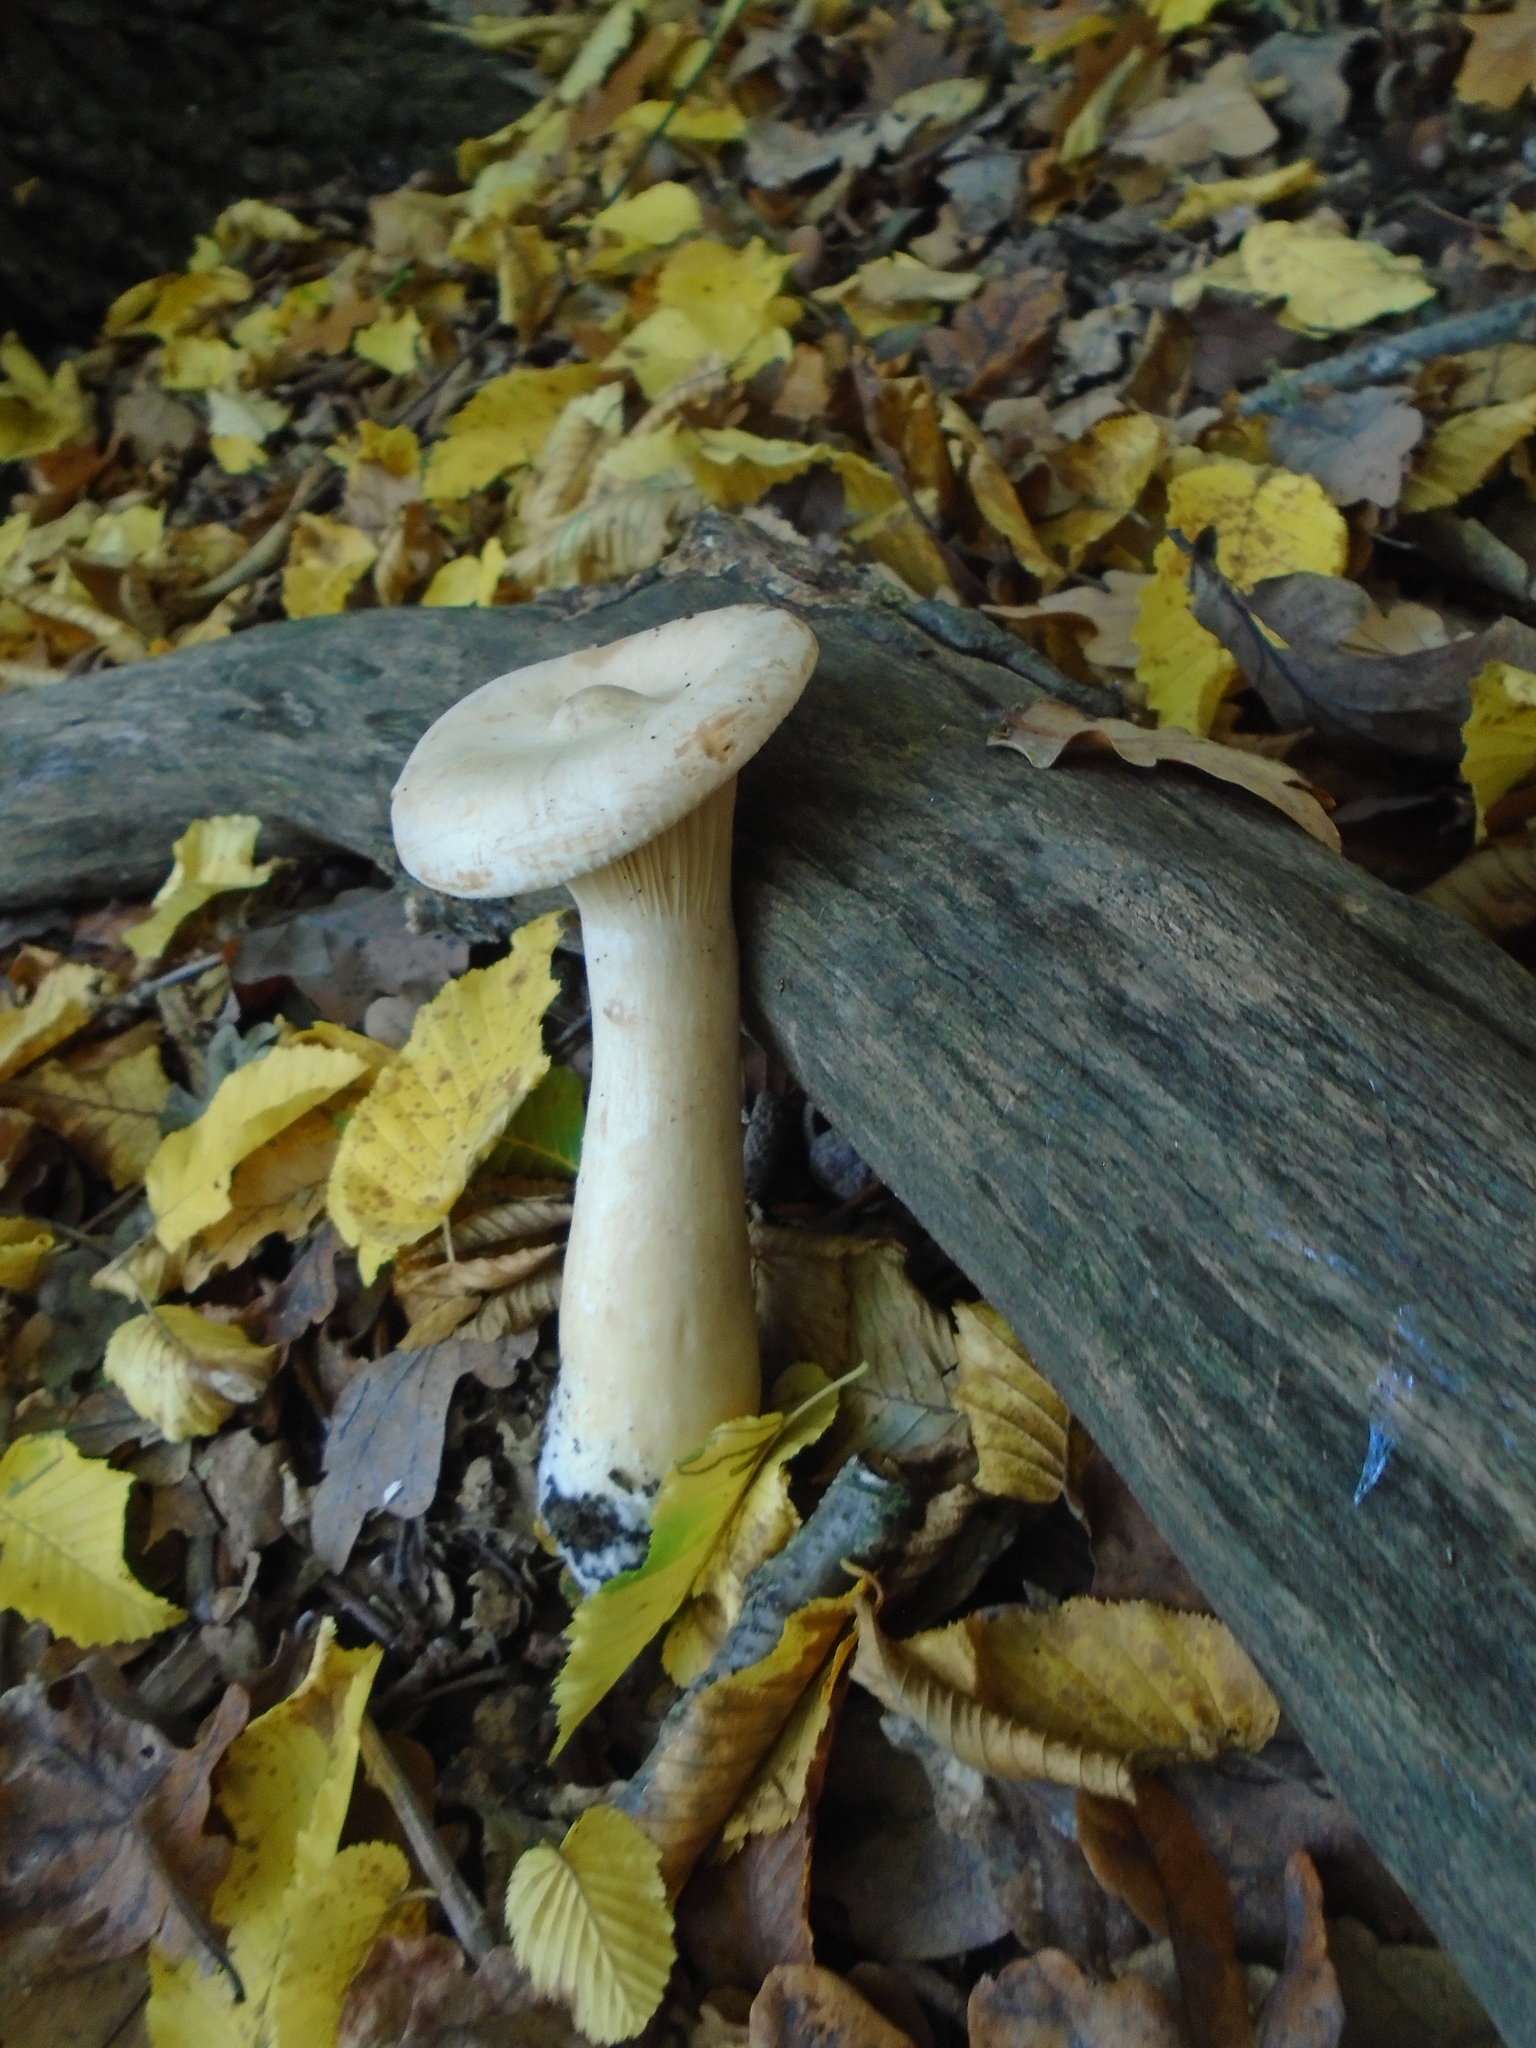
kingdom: Fungi
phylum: Basidiomycota
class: Agaricomycetes
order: Agaricales
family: Tricholomataceae
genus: Infundibulicybe
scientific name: Infundibulicybe gibba
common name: Common funnel
